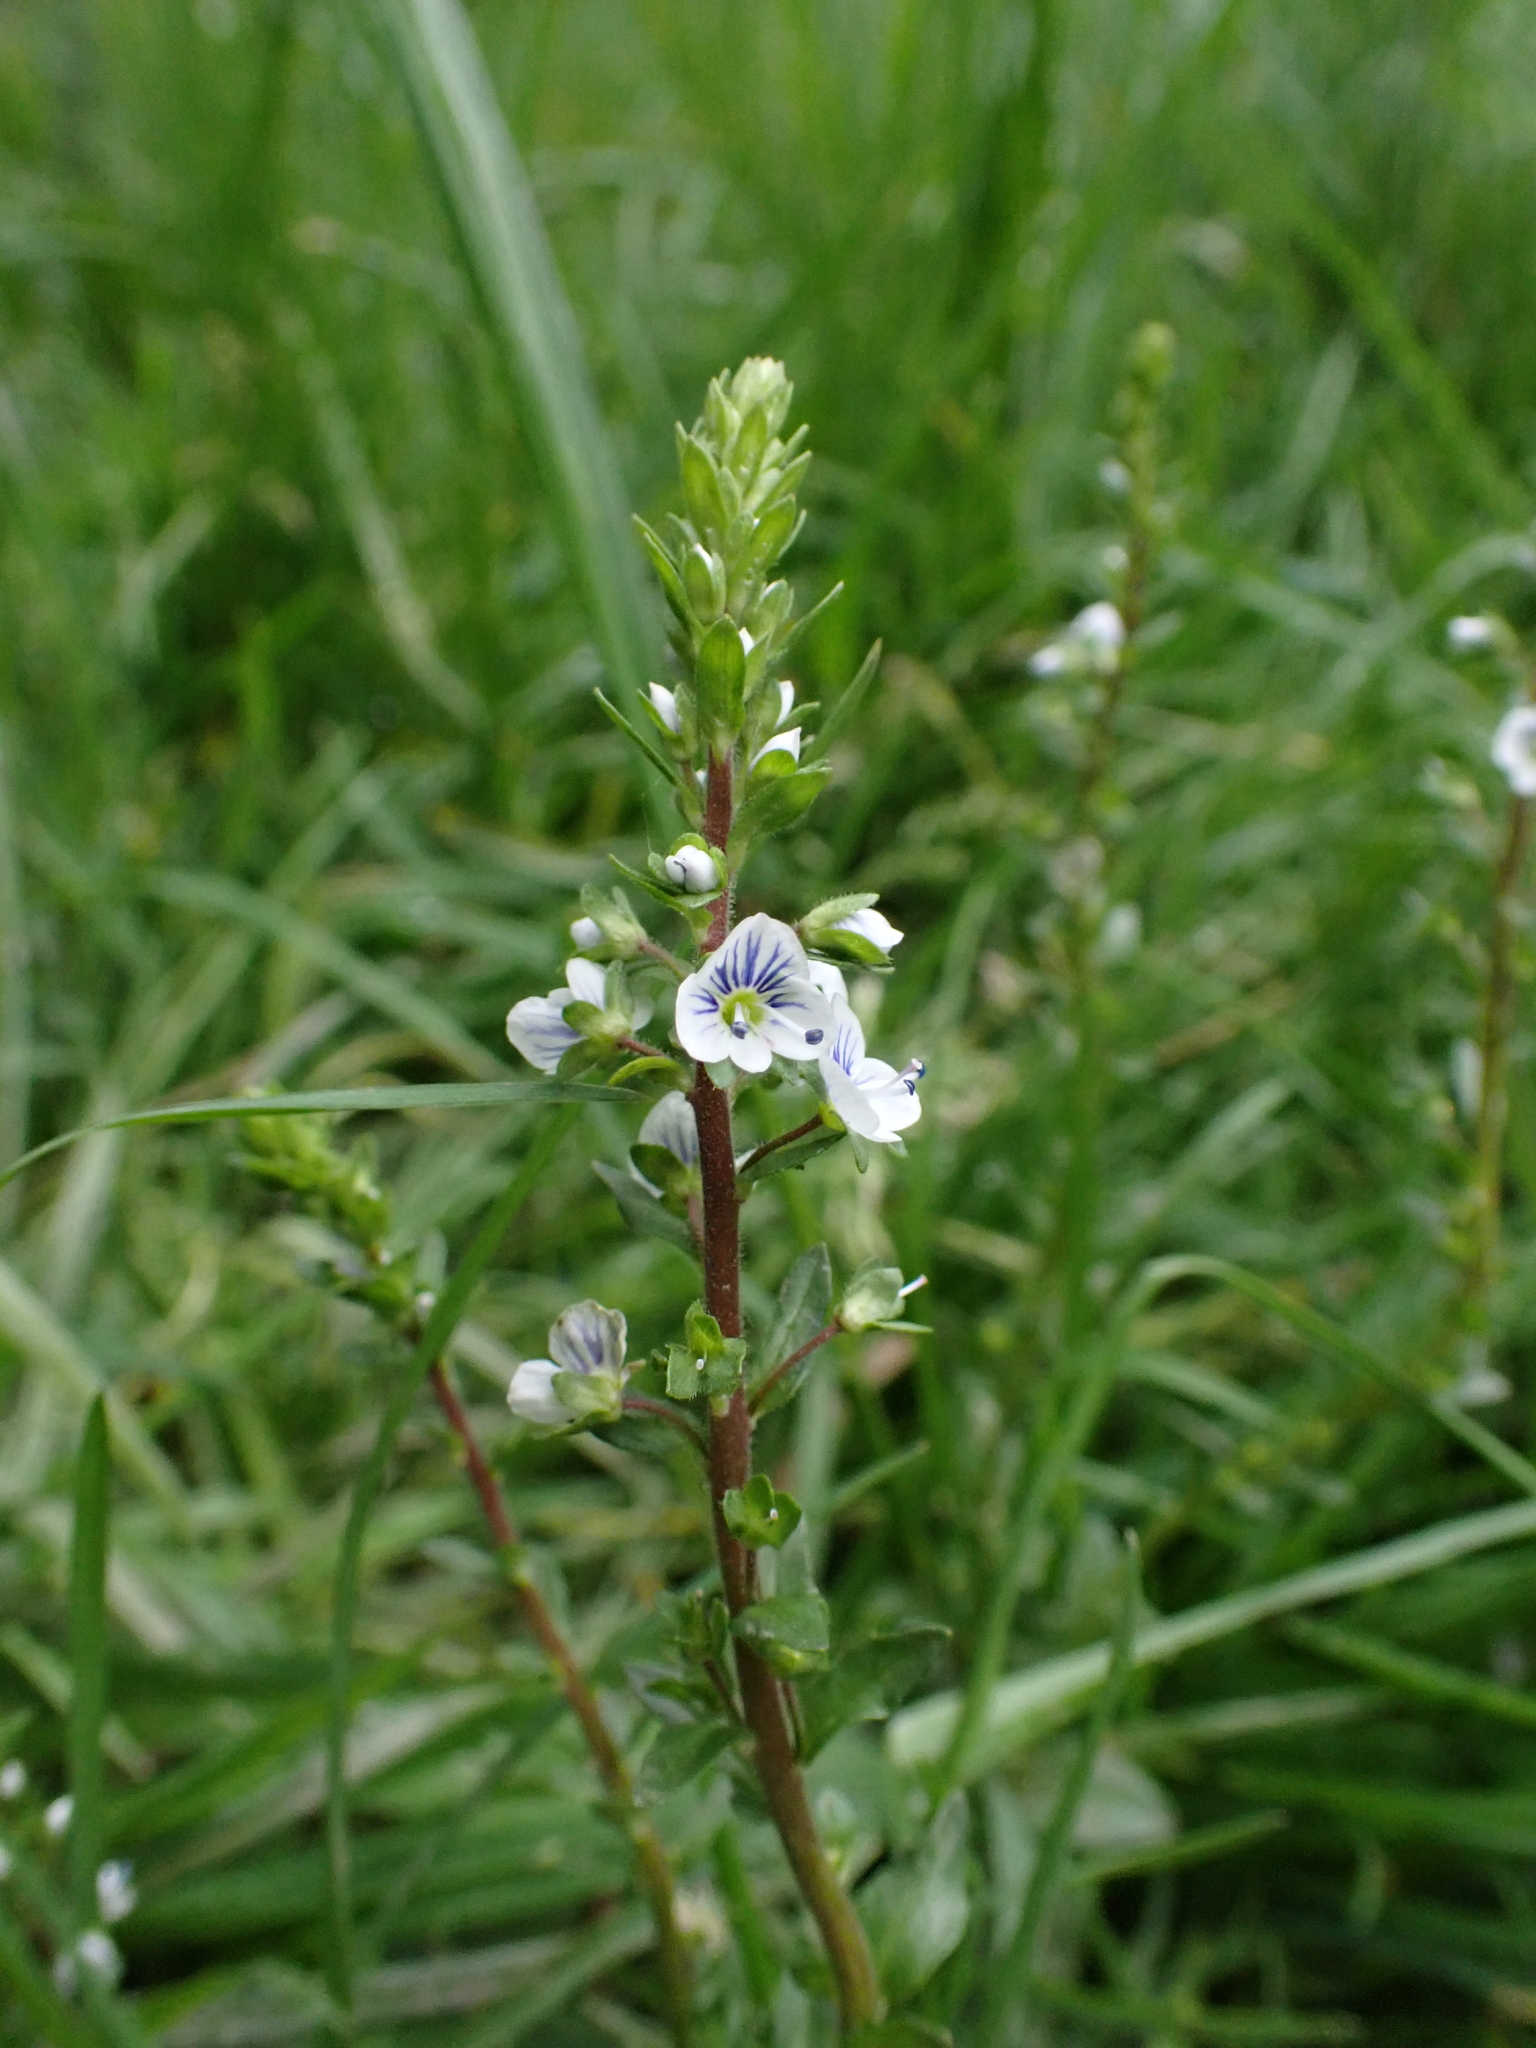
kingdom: Plantae
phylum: Tracheophyta
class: Magnoliopsida
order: Lamiales
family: Plantaginaceae
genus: Veronica
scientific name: Veronica serpyllifolia
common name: Thyme-leaved speedwell
